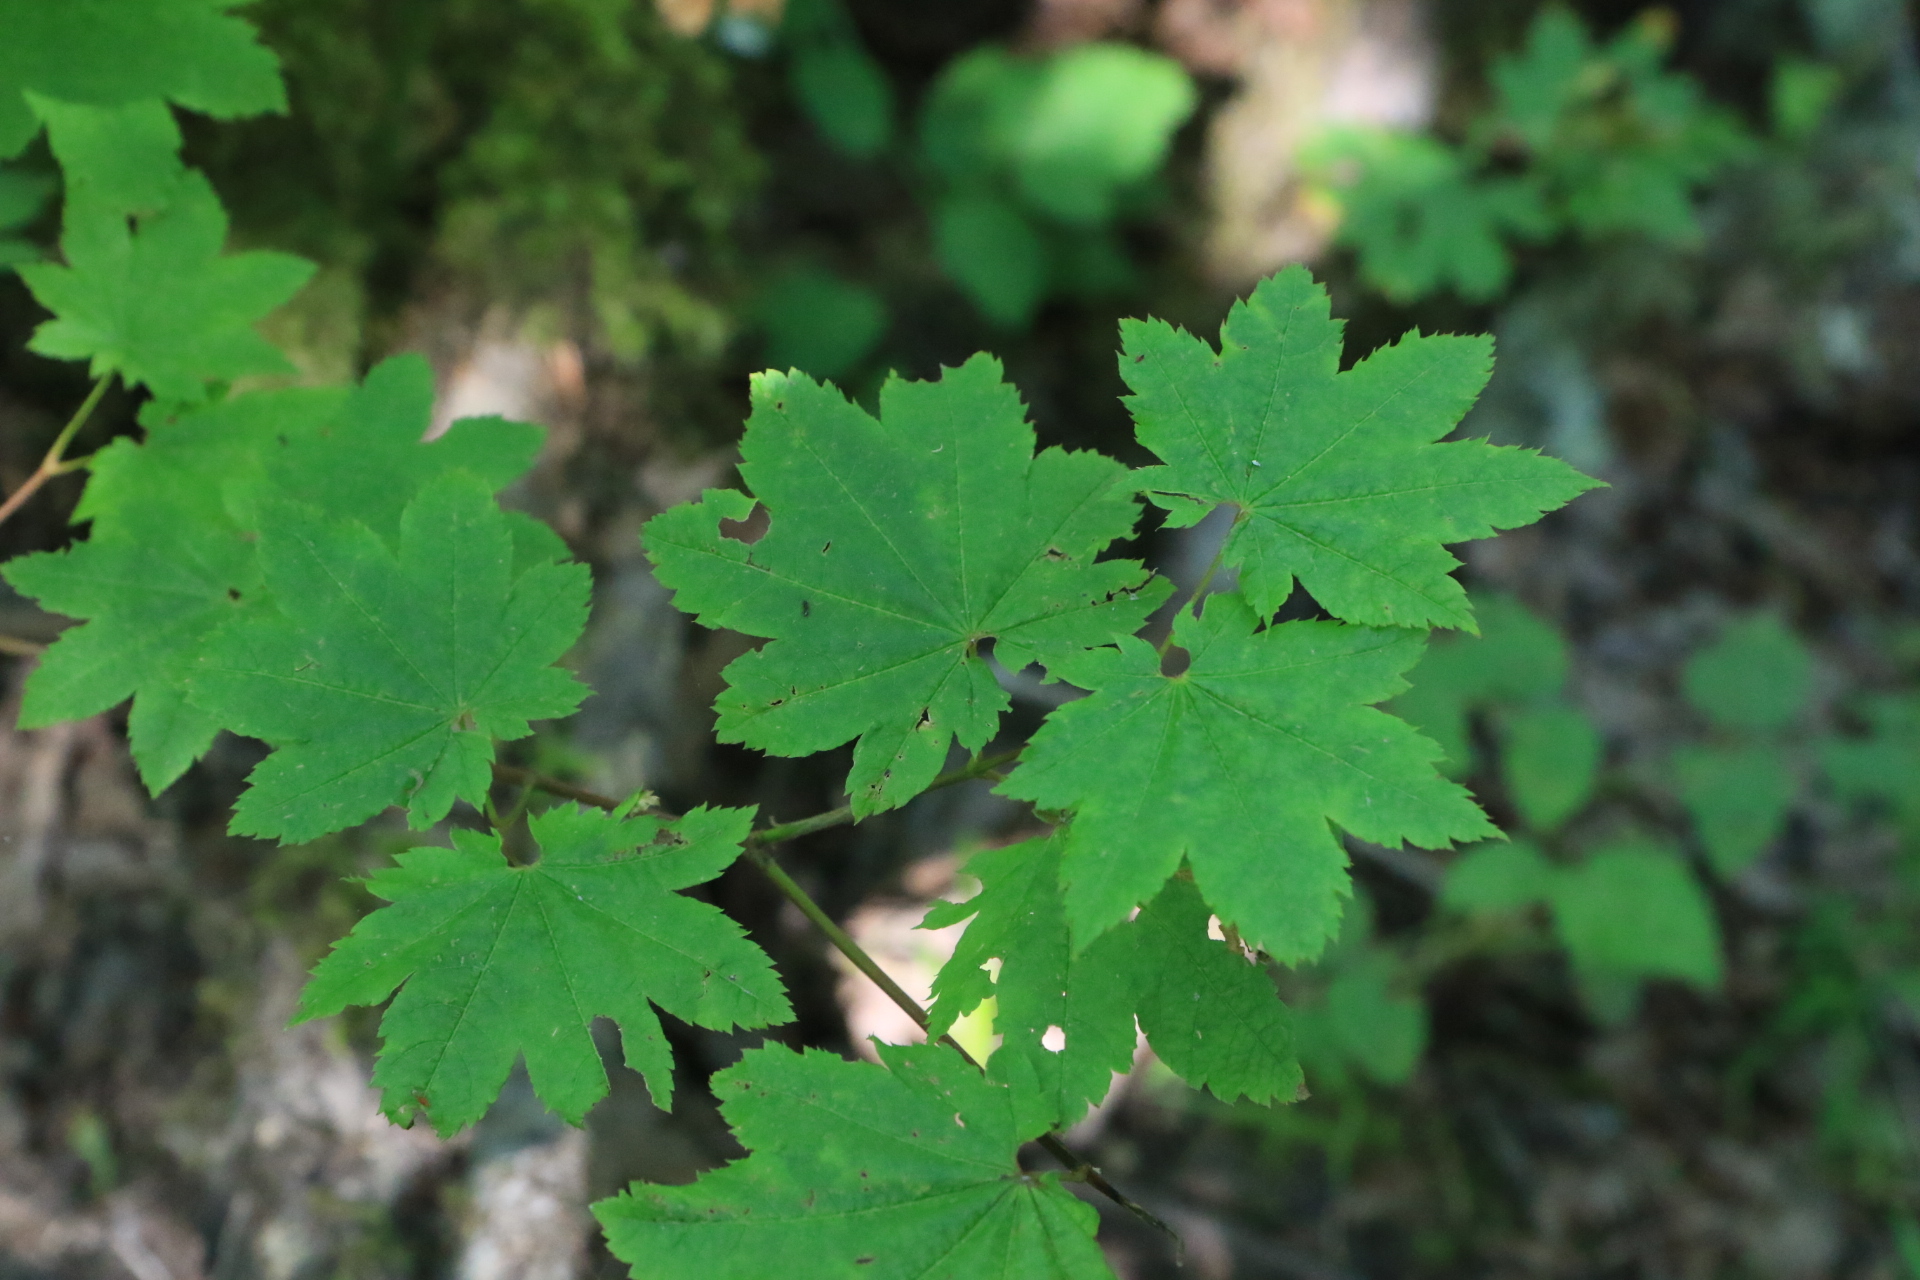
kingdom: Plantae
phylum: Tracheophyta
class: Magnoliopsida
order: Sapindales
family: Sapindaceae
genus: Acer
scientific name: Acer circinatum
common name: Vine maple
